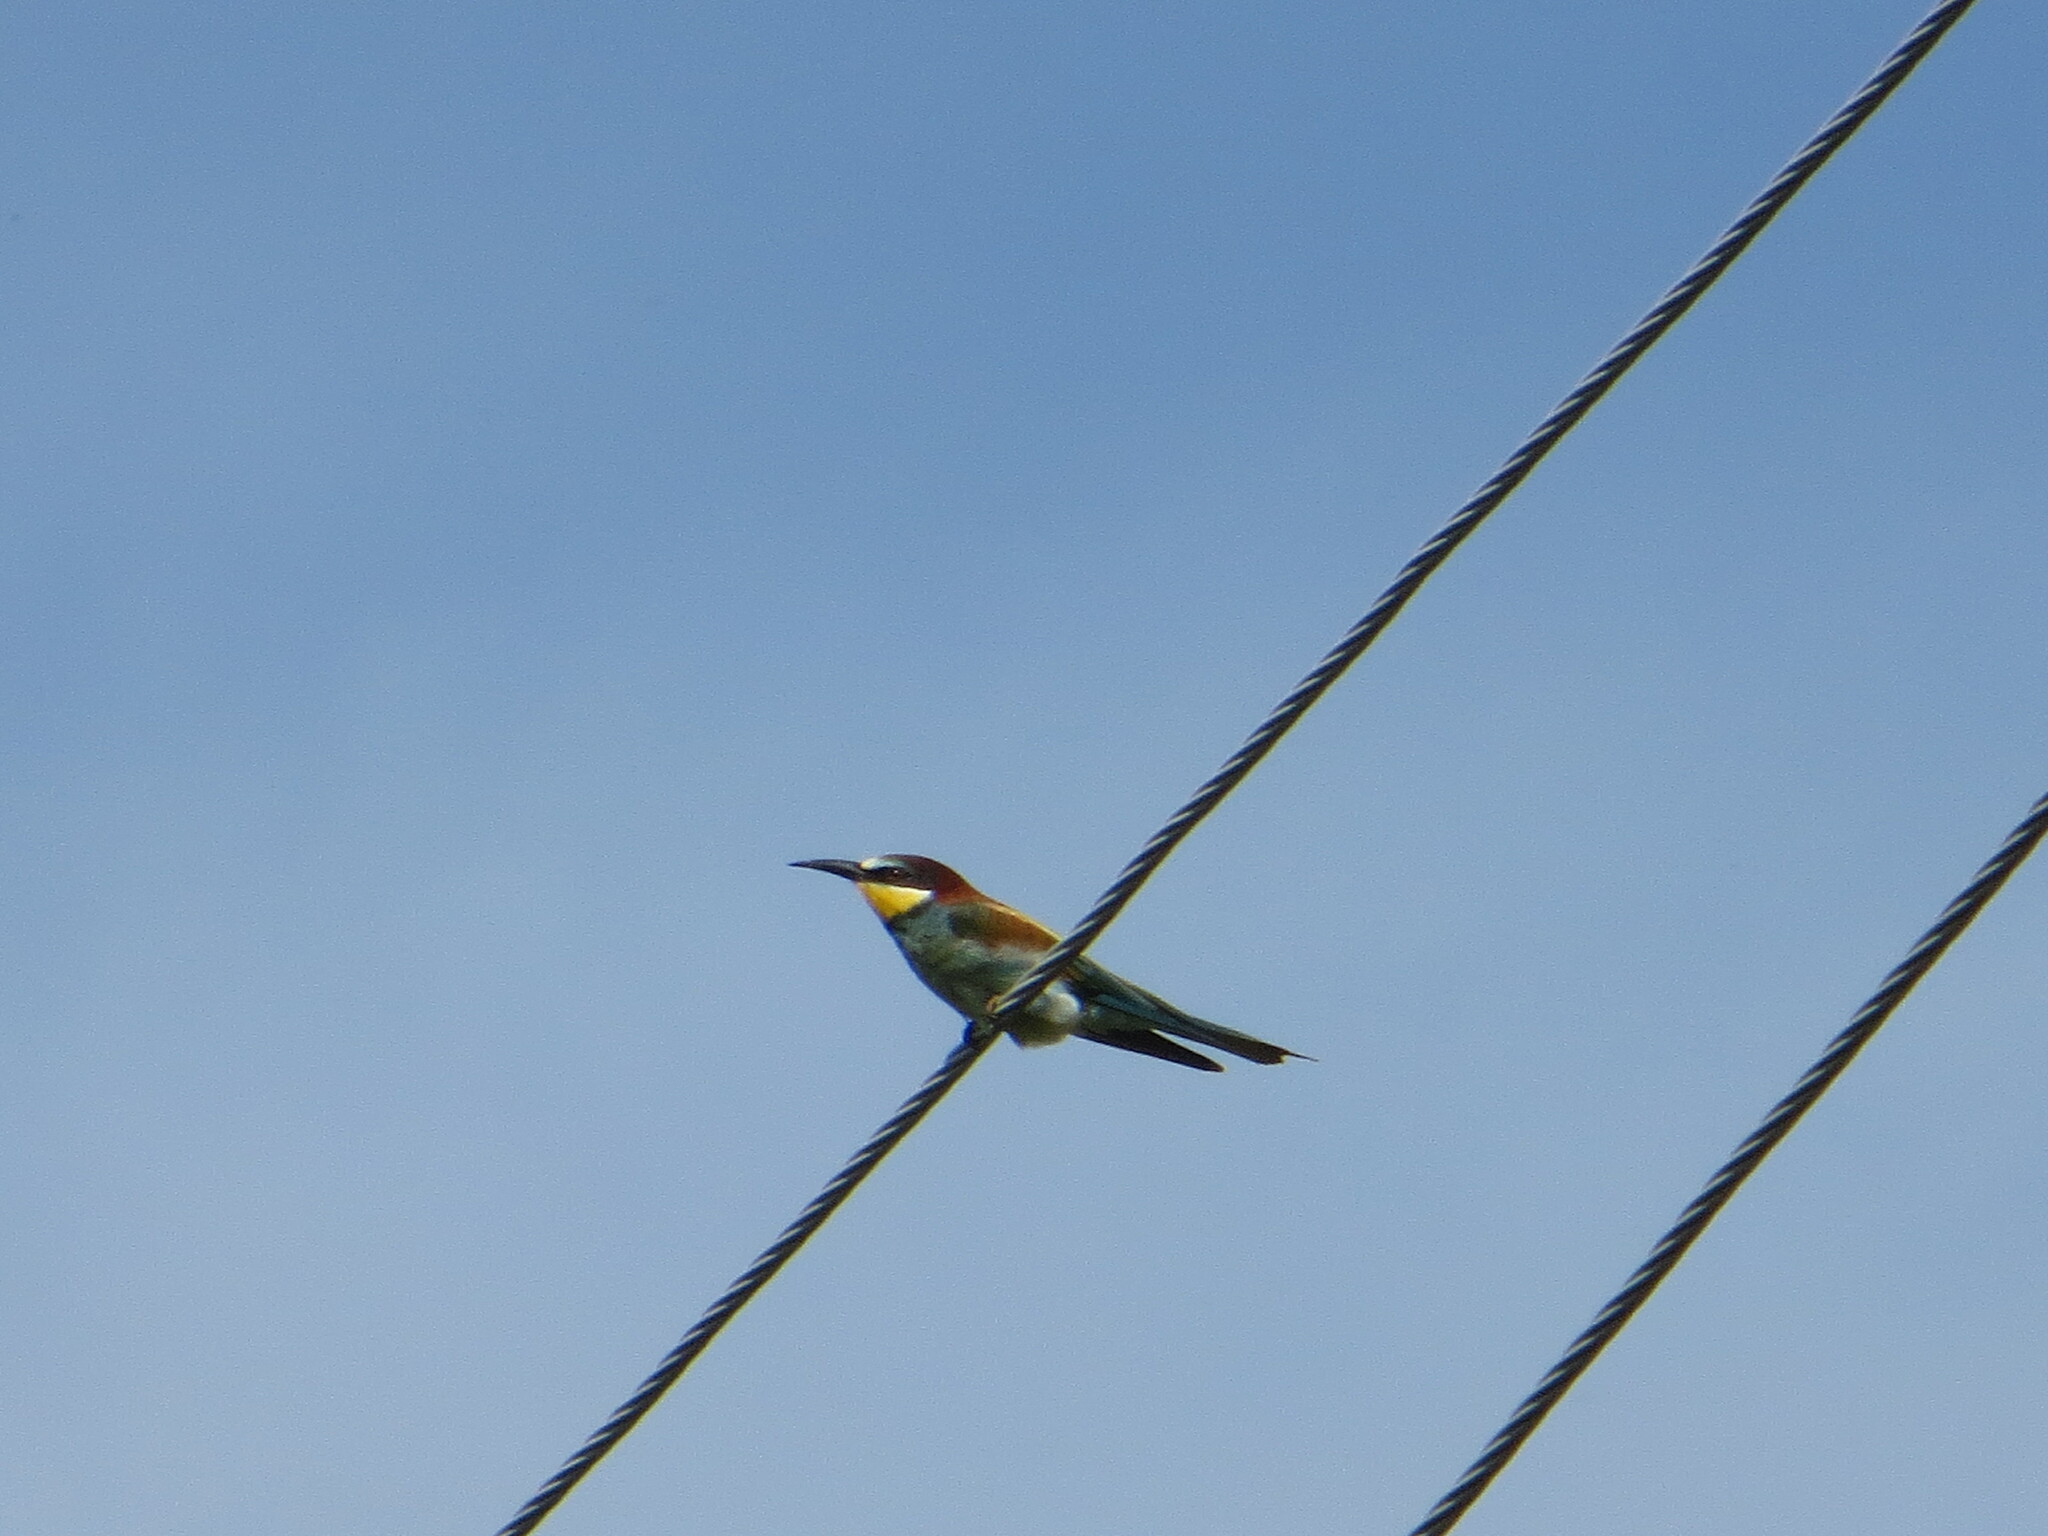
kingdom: Animalia
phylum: Chordata
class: Aves
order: Coraciiformes
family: Meropidae
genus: Merops
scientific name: Merops apiaster
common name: European bee-eater
